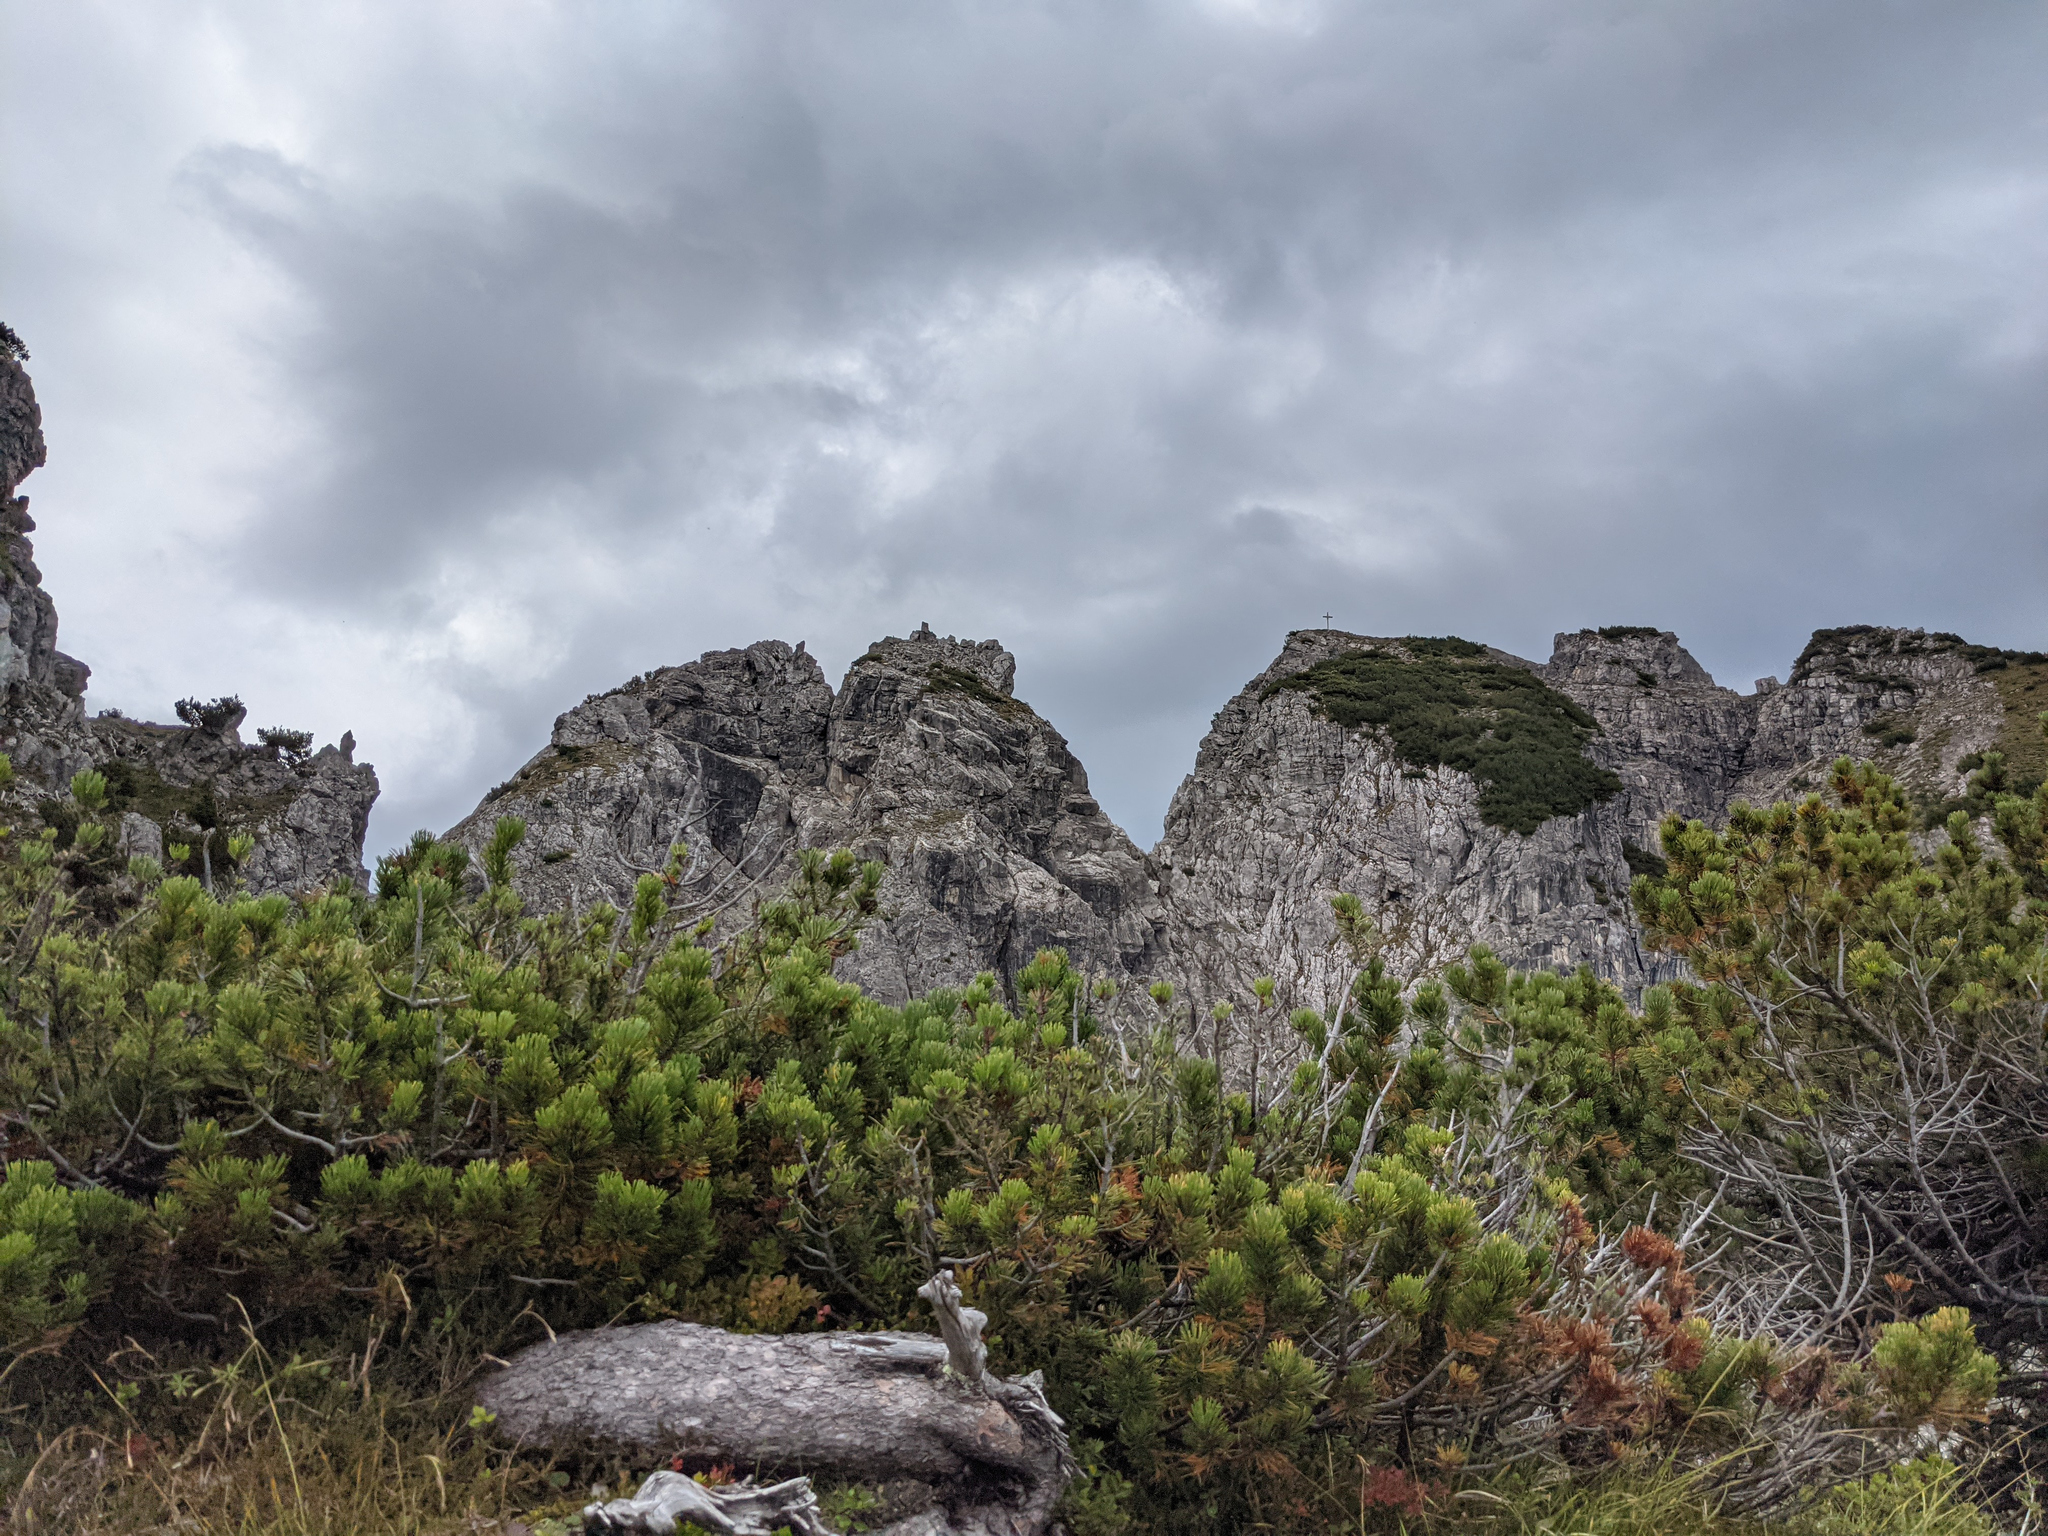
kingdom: Plantae
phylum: Tracheophyta
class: Pinopsida
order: Pinales
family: Pinaceae
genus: Pinus
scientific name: Pinus mugo
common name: Mugo pine
